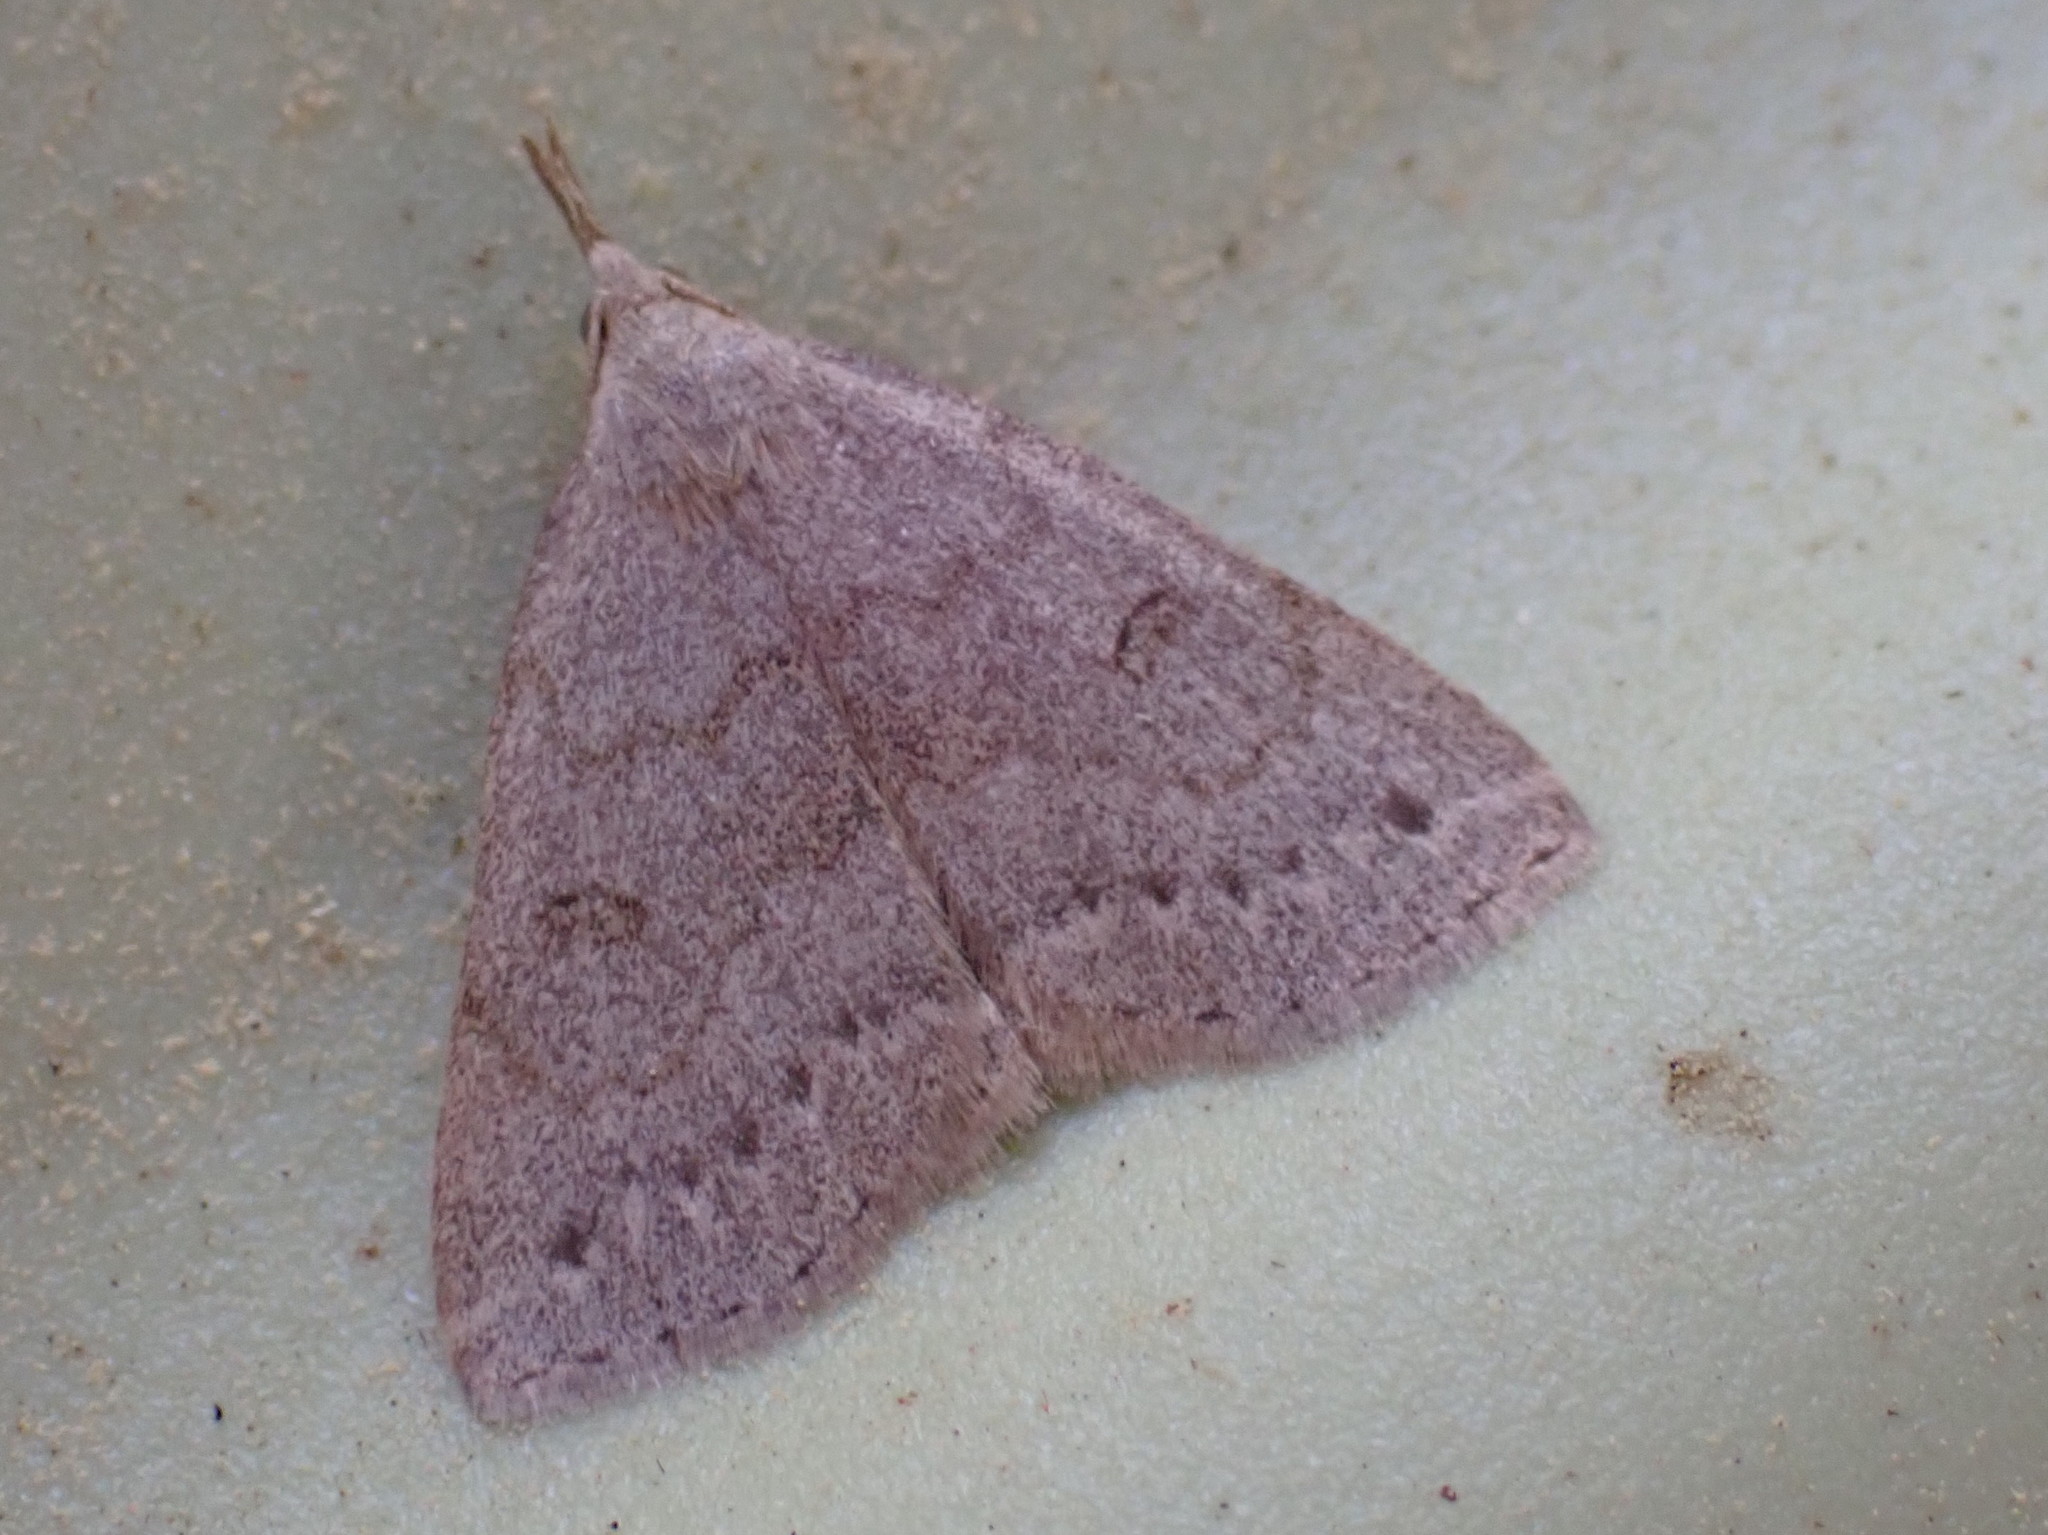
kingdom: Animalia
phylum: Arthropoda
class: Insecta
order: Lepidoptera
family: Erebidae
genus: Macrochilo
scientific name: Macrochilo morbidalis
